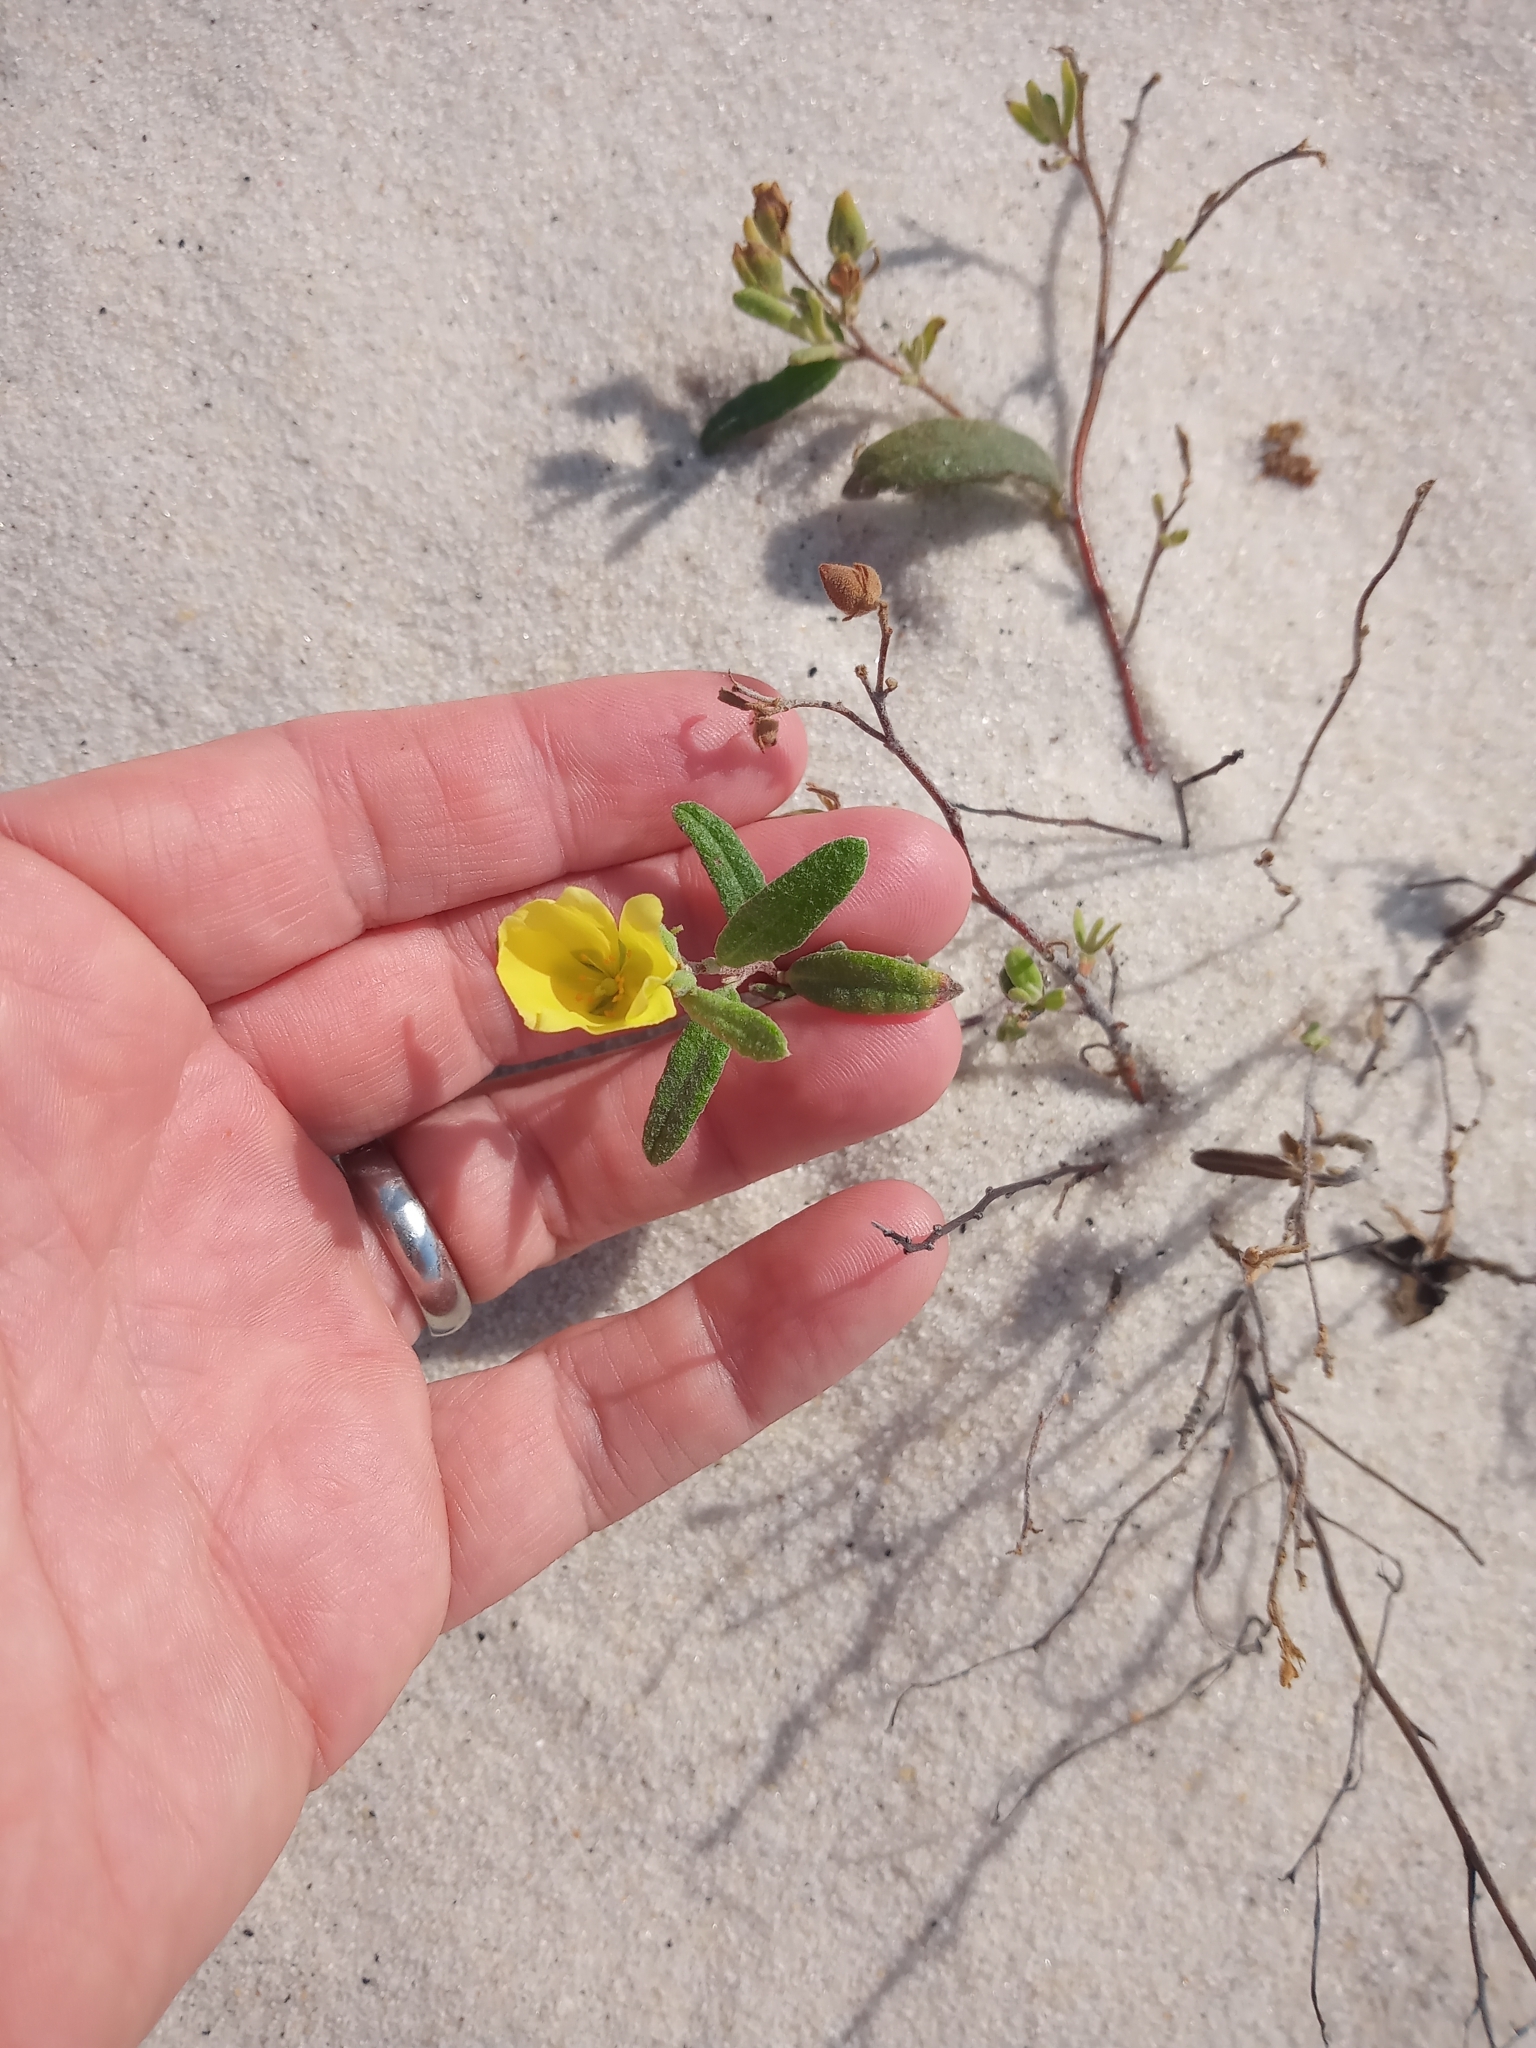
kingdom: Plantae
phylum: Tracheophyta
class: Magnoliopsida
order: Malvales
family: Cistaceae
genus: Crocanthemum
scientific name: Crocanthemum arenicola
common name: Gulf coast frostweed
